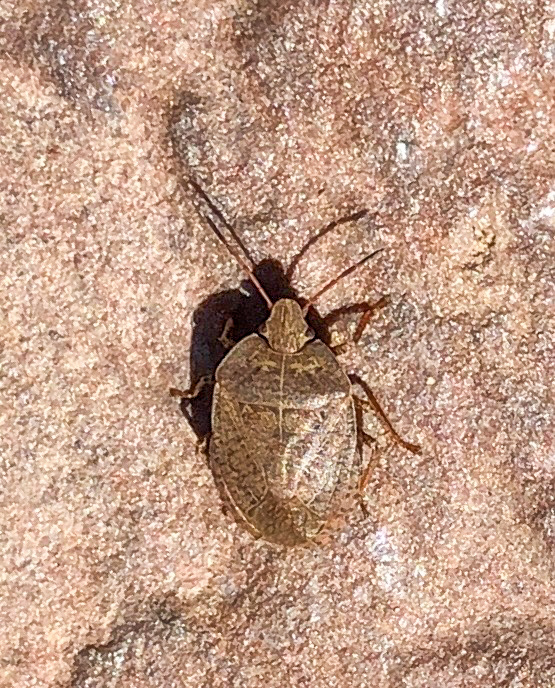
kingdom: Animalia
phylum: Arthropoda
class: Insecta
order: Hemiptera
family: Pentatomidae
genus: Menecles
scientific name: Menecles insertus
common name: Elf shoe stink bug
